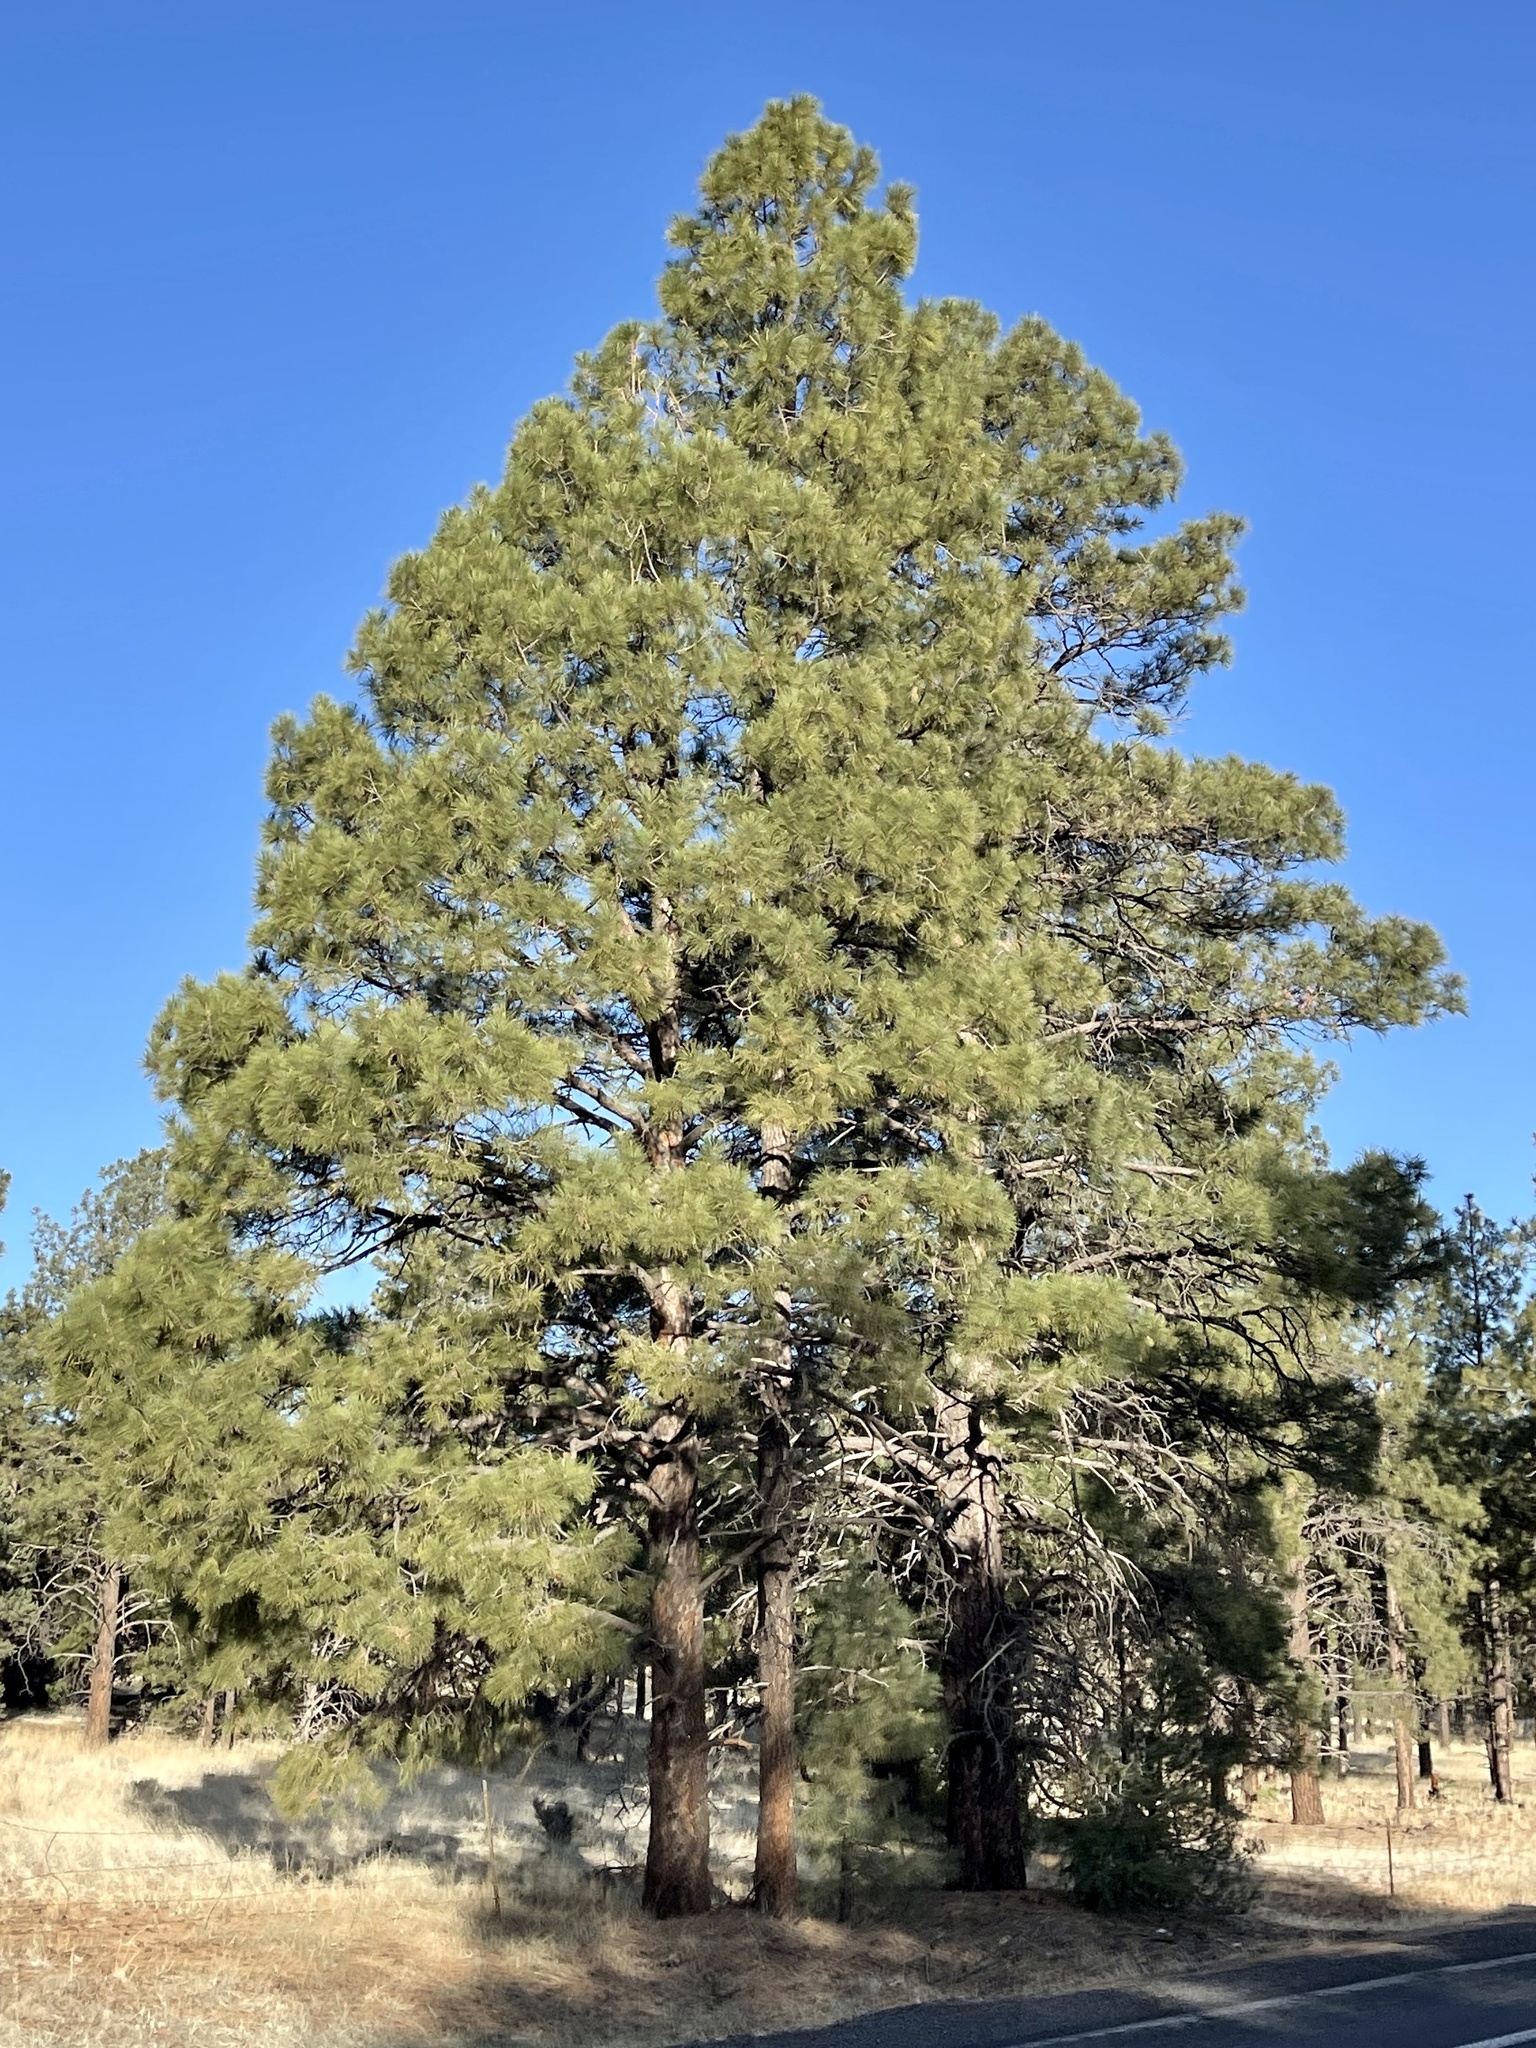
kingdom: Plantae
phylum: Tracheophyta
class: Pinopsida
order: Pinales
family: Pinaceae
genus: Pinus
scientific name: Pinus ponderosa
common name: Western yellow-pine
